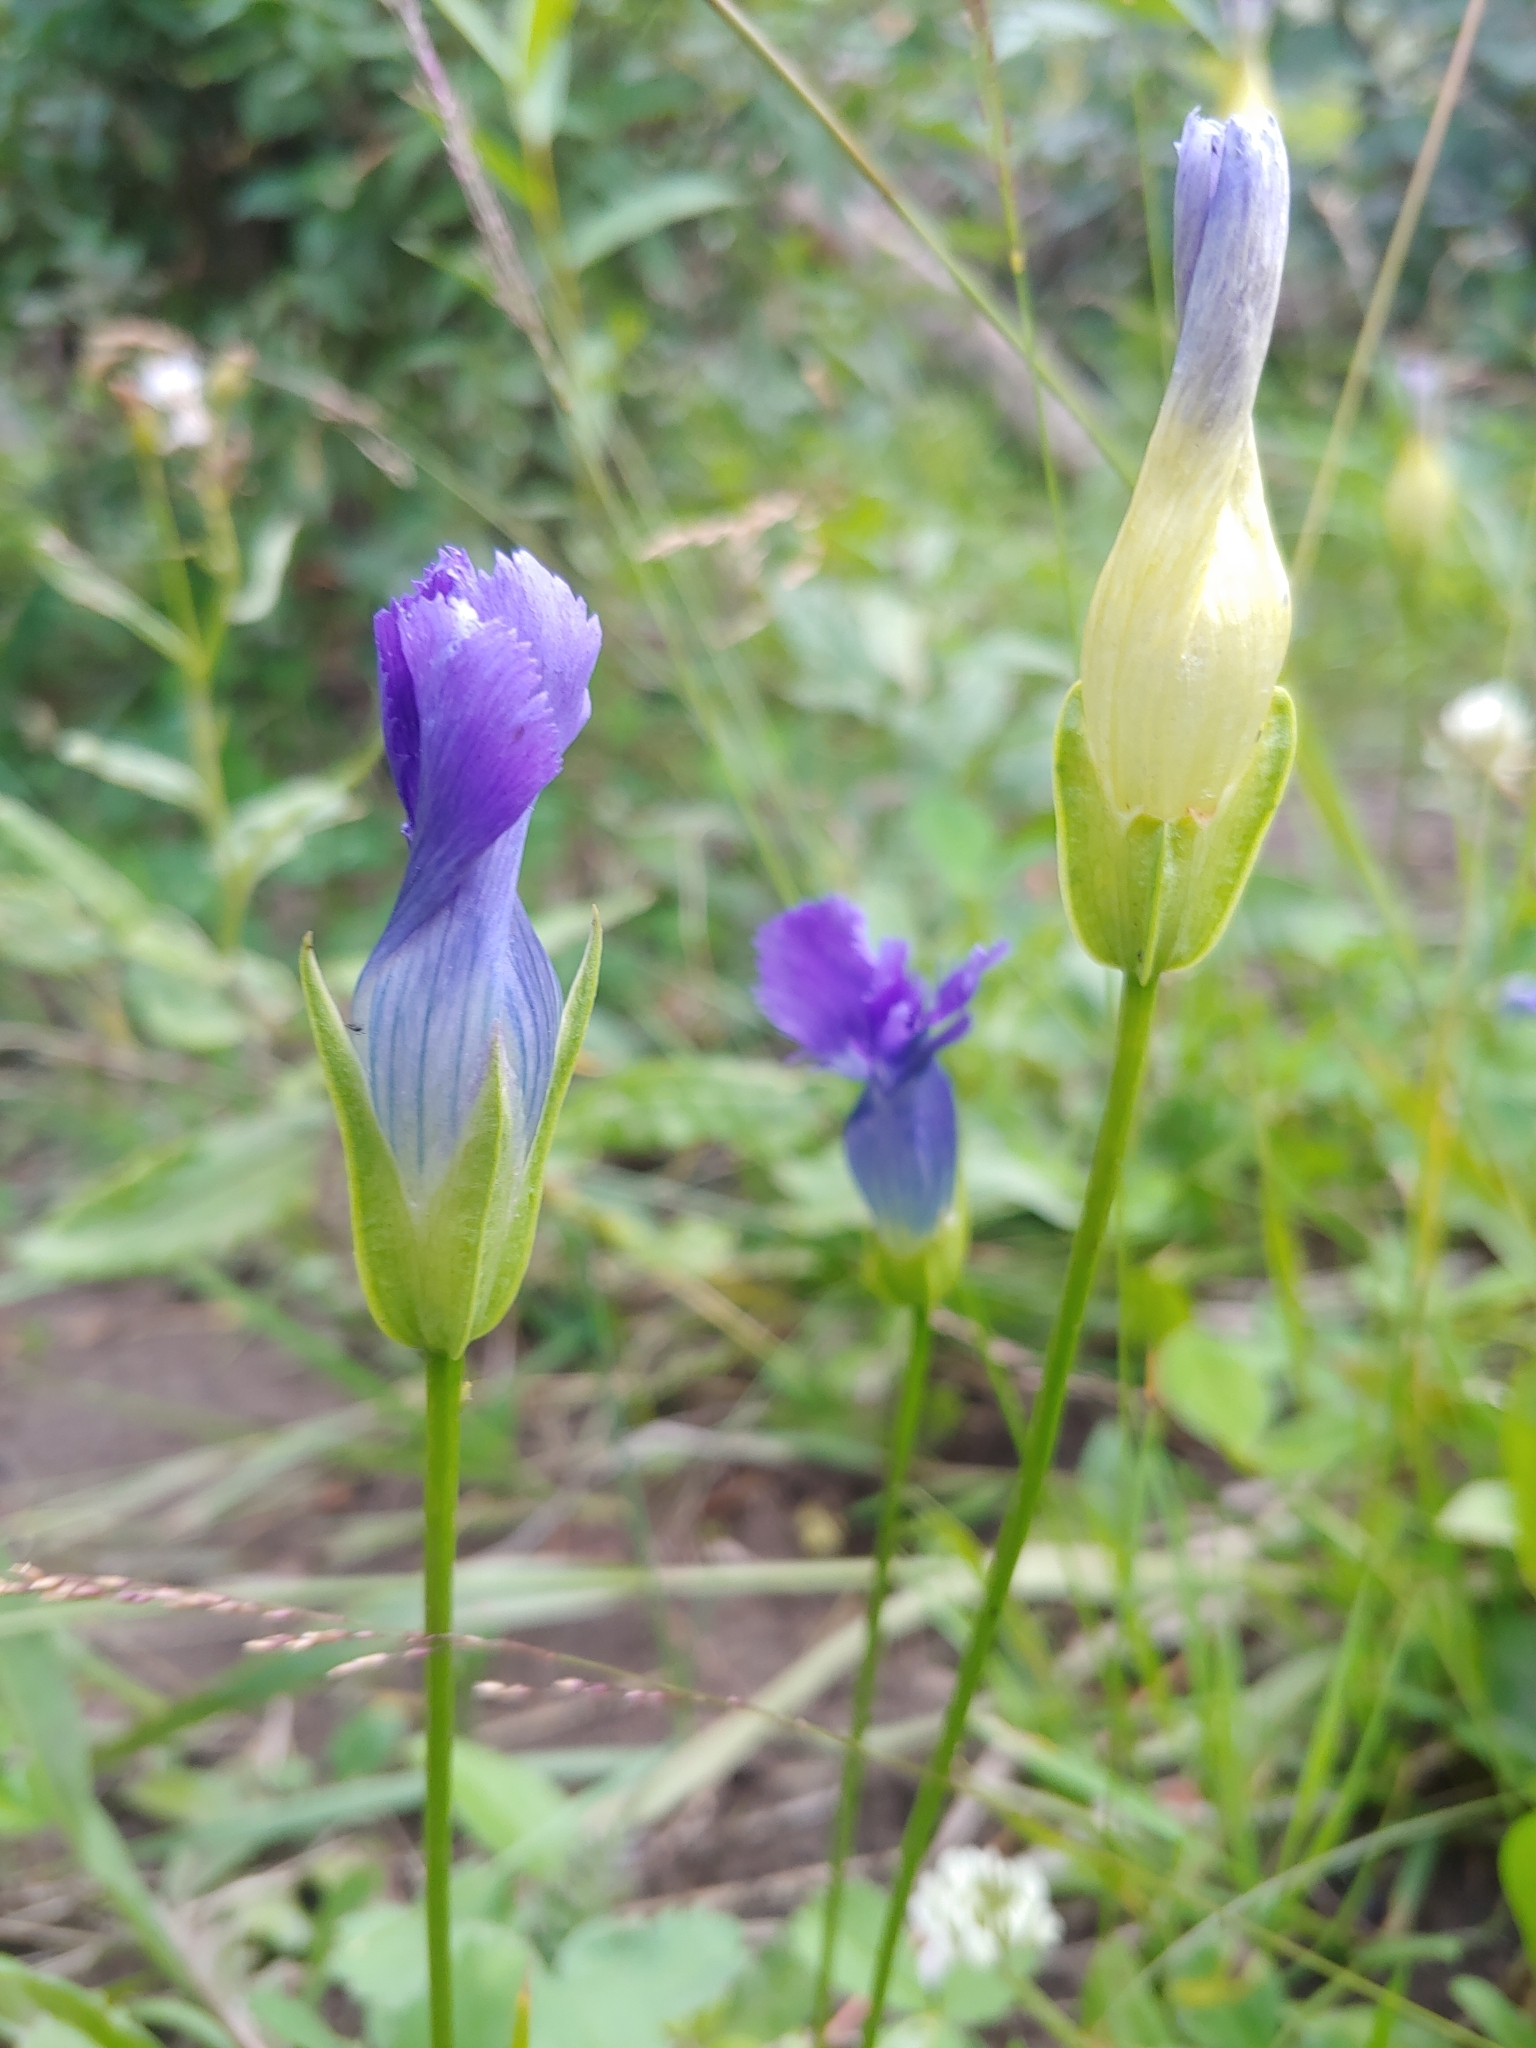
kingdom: Plantae
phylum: Tracheophyta
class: Magnoliopsida
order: Gentianales
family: Gentianaceae
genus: Gentianopsis
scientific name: Gentianopsis thermalis
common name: Rocky mountain fringed-gentian
